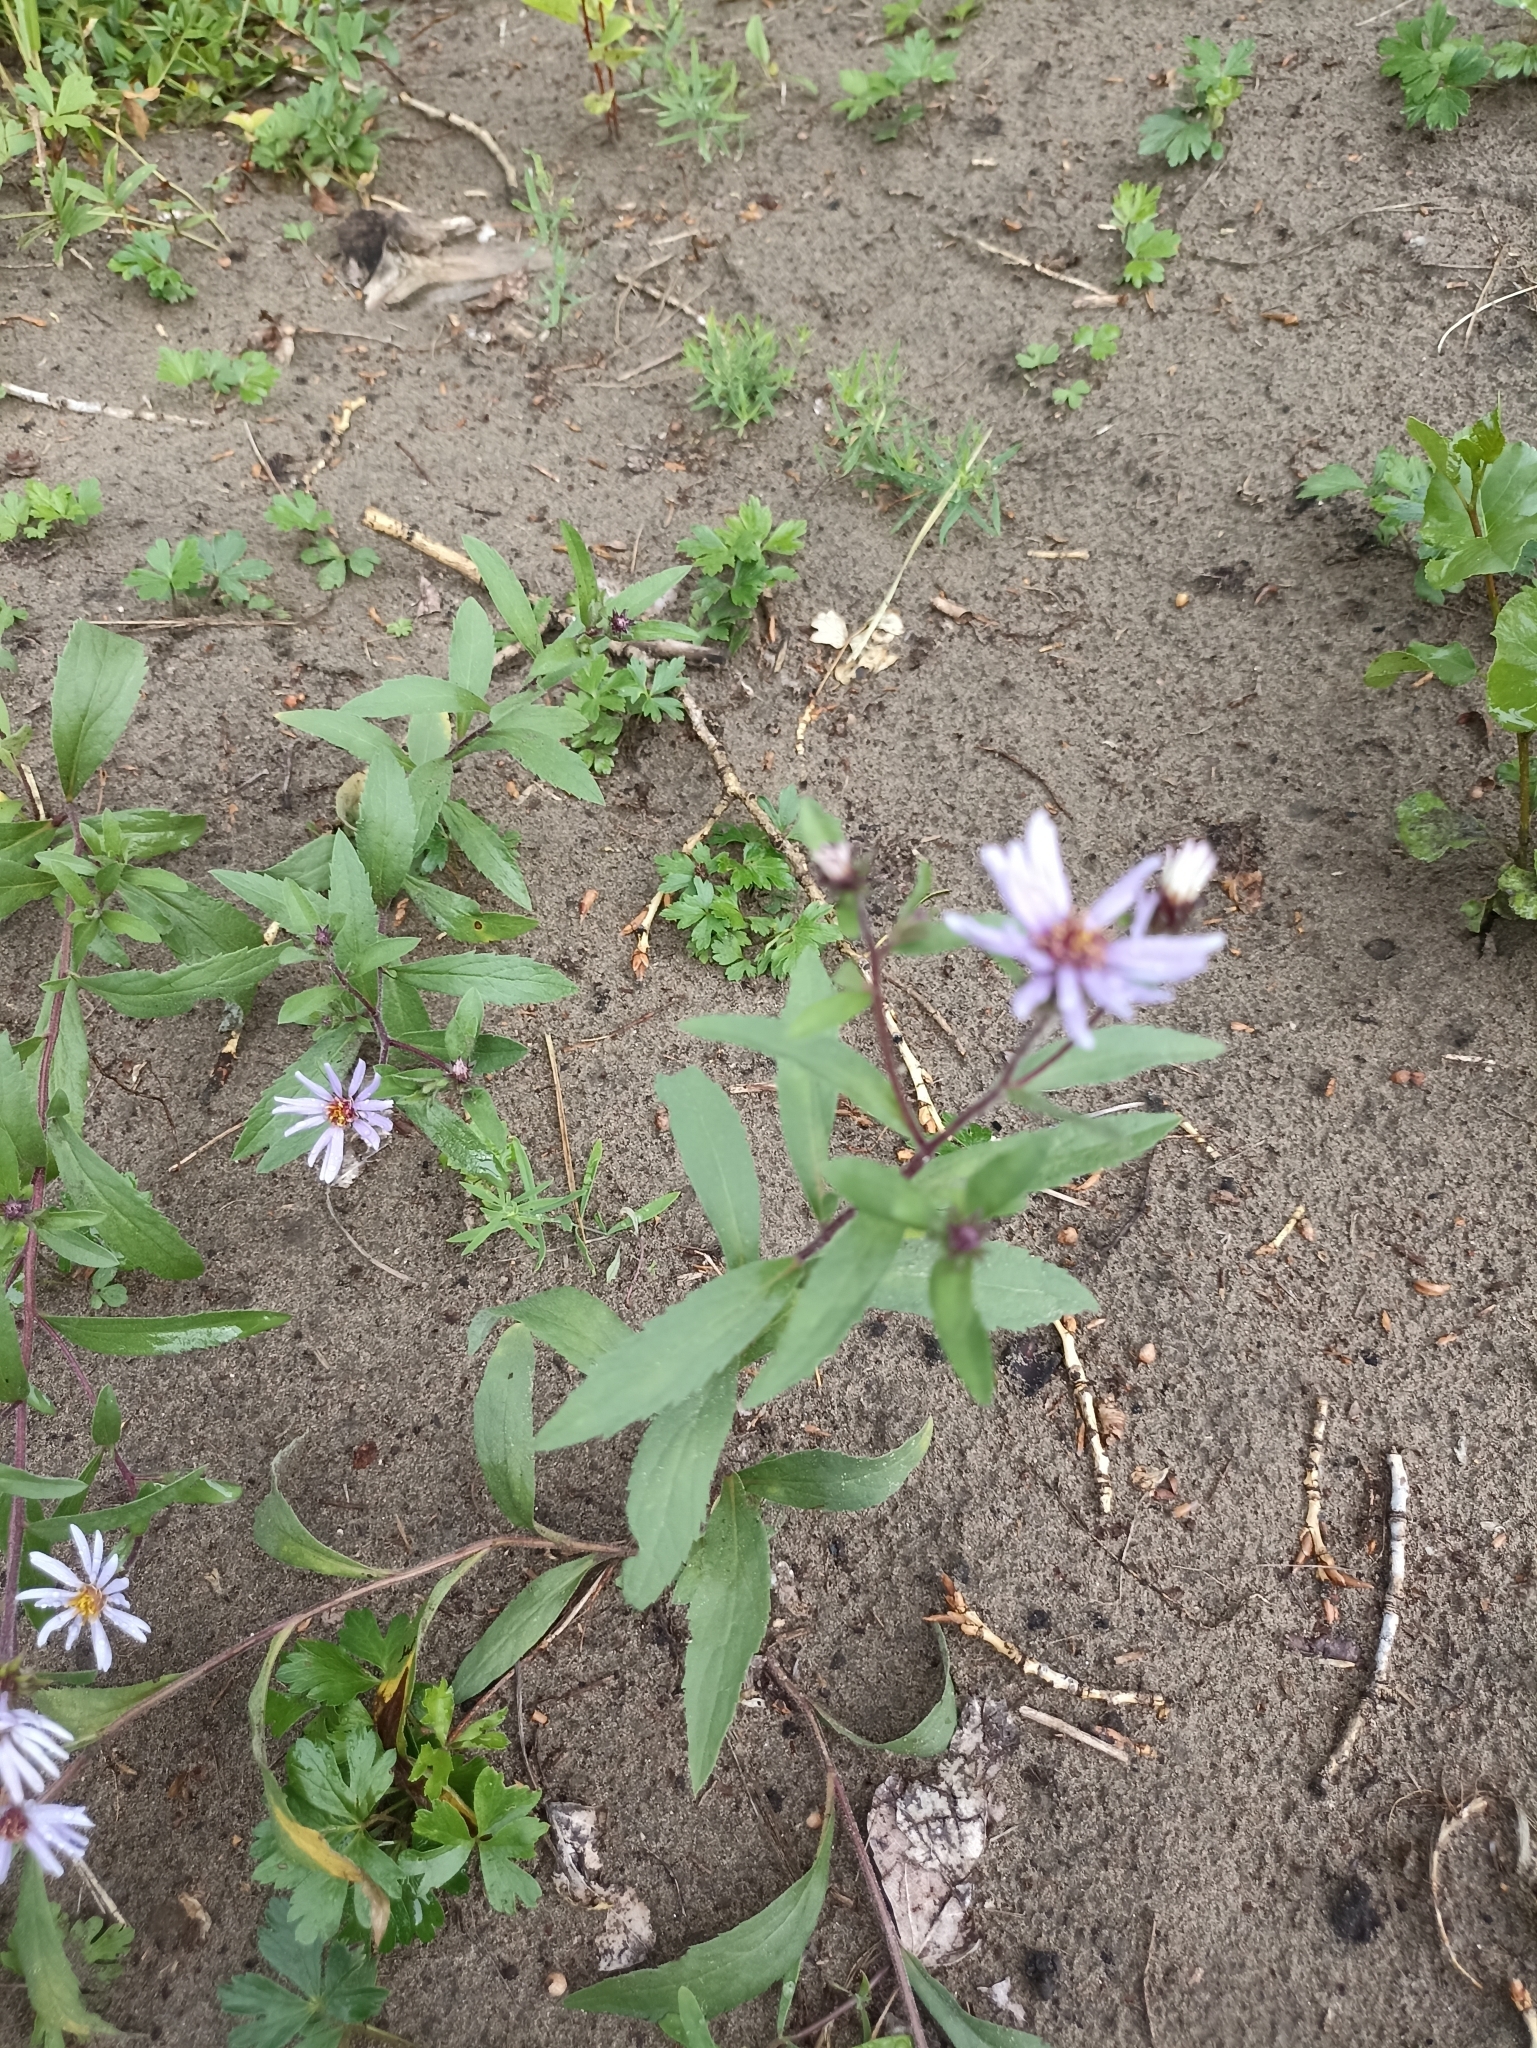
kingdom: Plantae
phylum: Tracheophyta
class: Magnoliopsida
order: Asterales
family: Asteraceae
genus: Eurybia
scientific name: Eurybia sibirica
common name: Arctic aster
